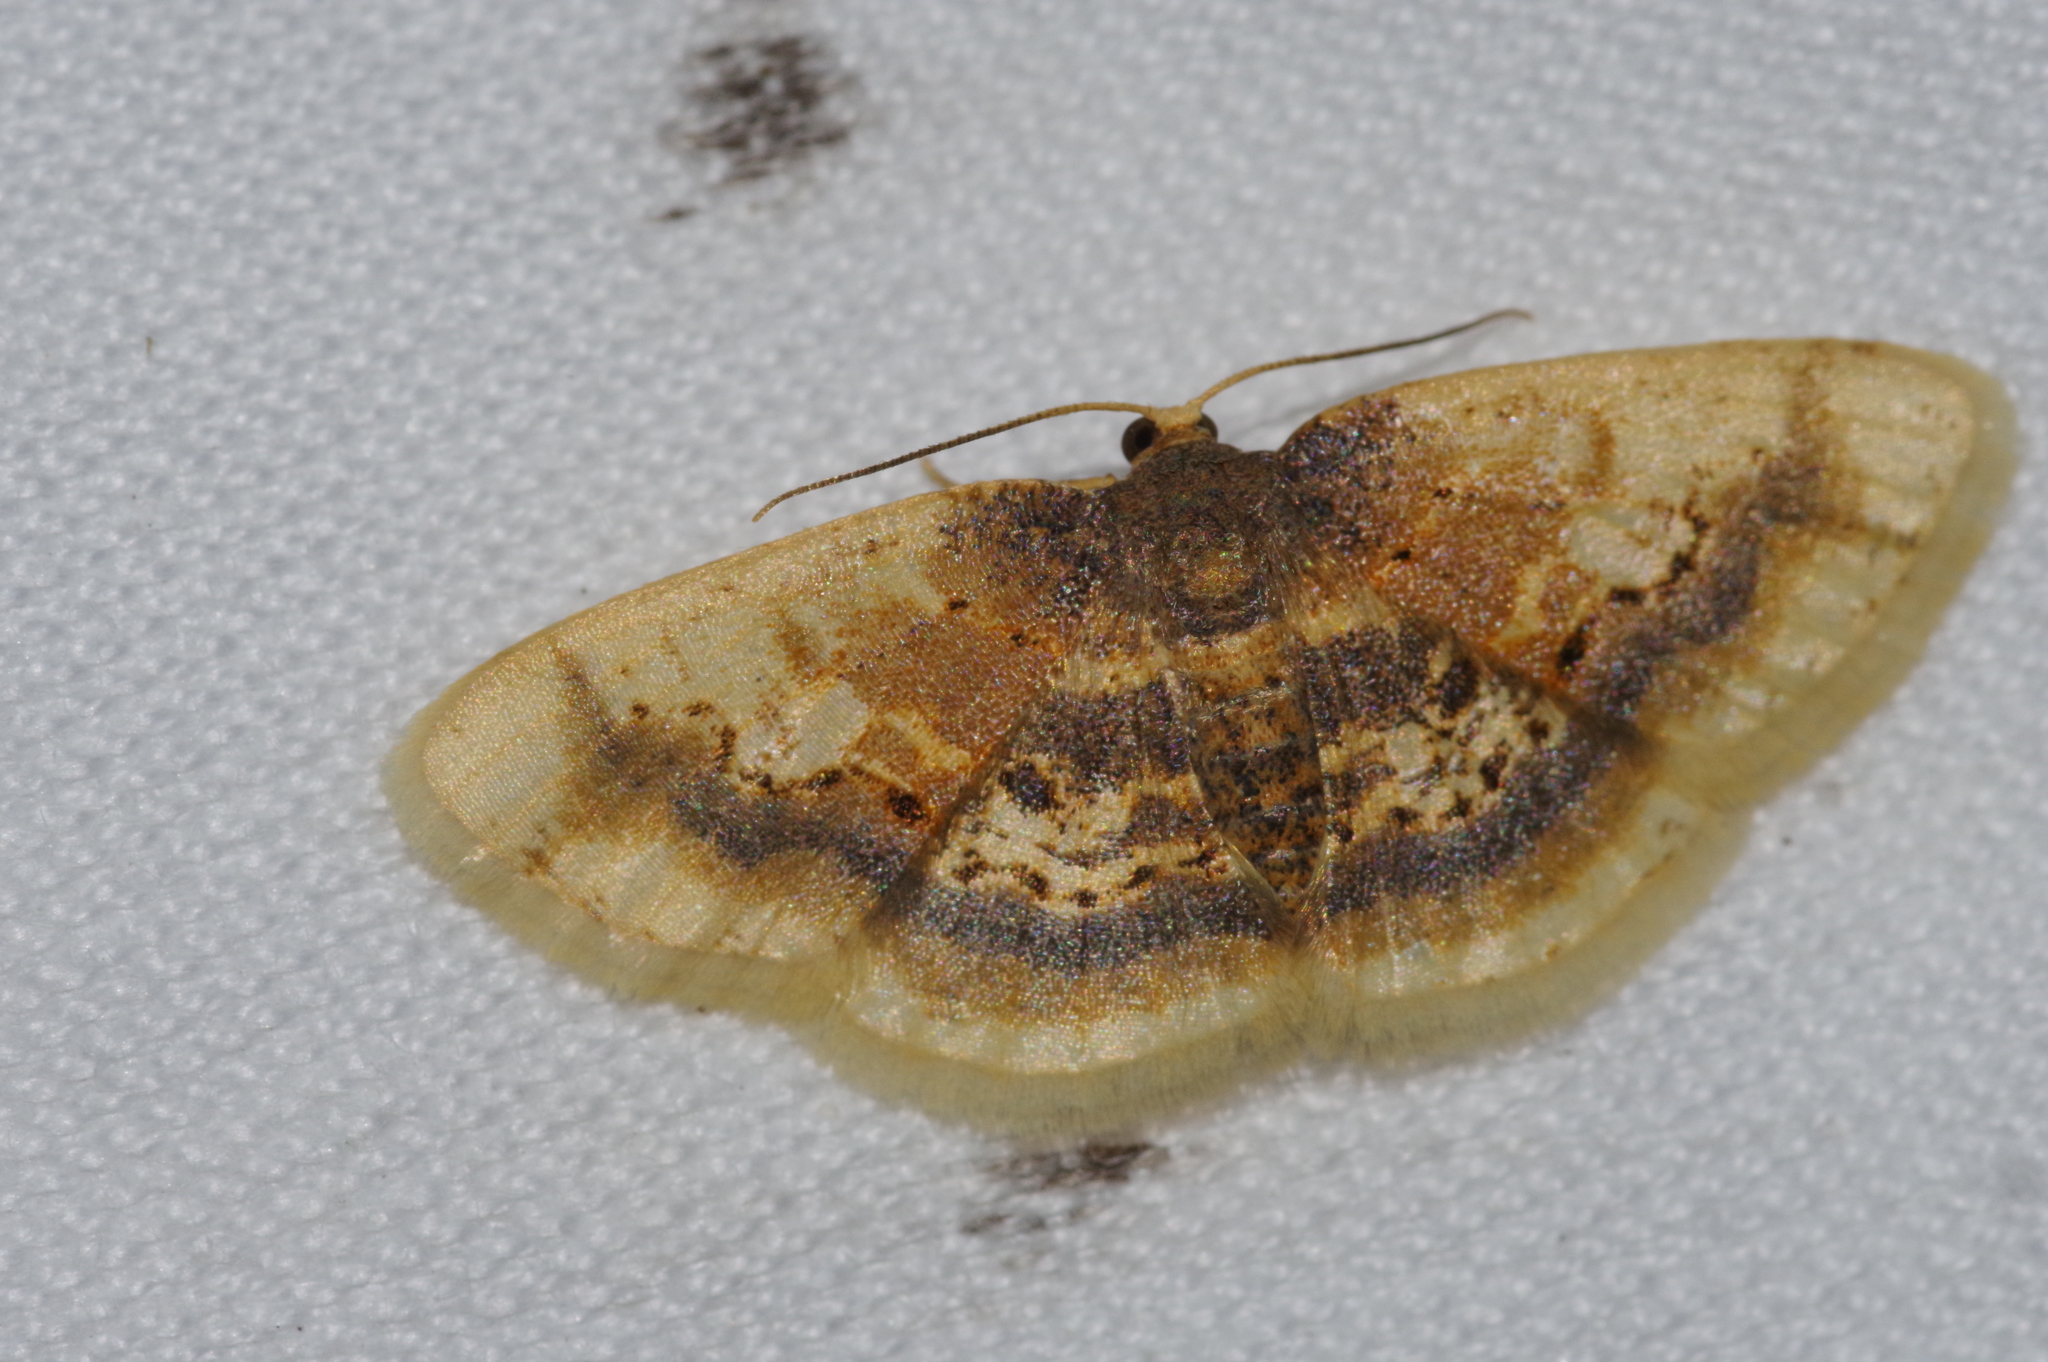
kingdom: Animalia
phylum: Arthropoda
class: Insecta
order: Lepidoptera
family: Geometridae
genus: Ninodes
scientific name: Ninodes watanabei
